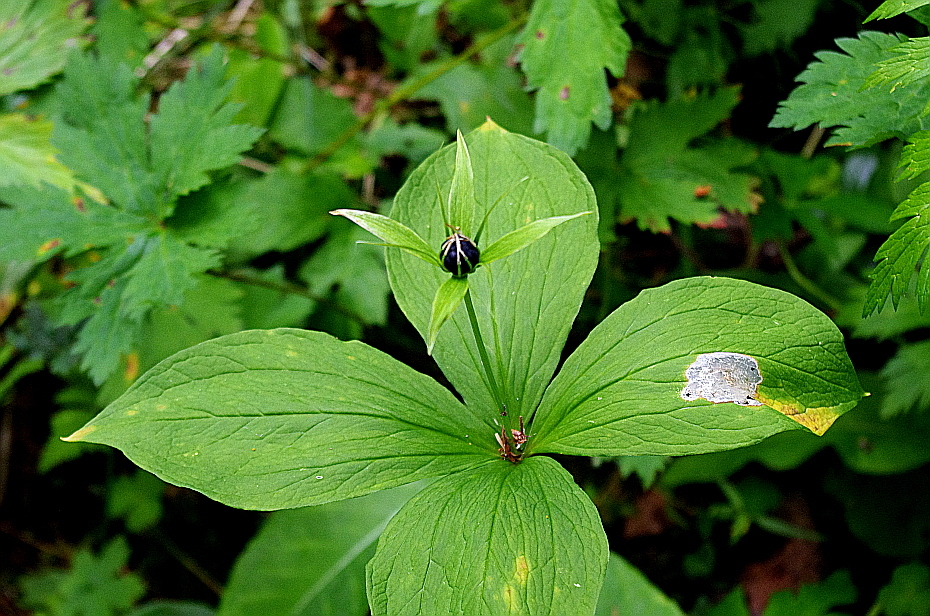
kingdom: Plantae
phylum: Tracheophyta
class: Liliopsida
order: Liliales
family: Melanthiaceae
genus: Paris
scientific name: Paris quadrifolia
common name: Herb-paris
